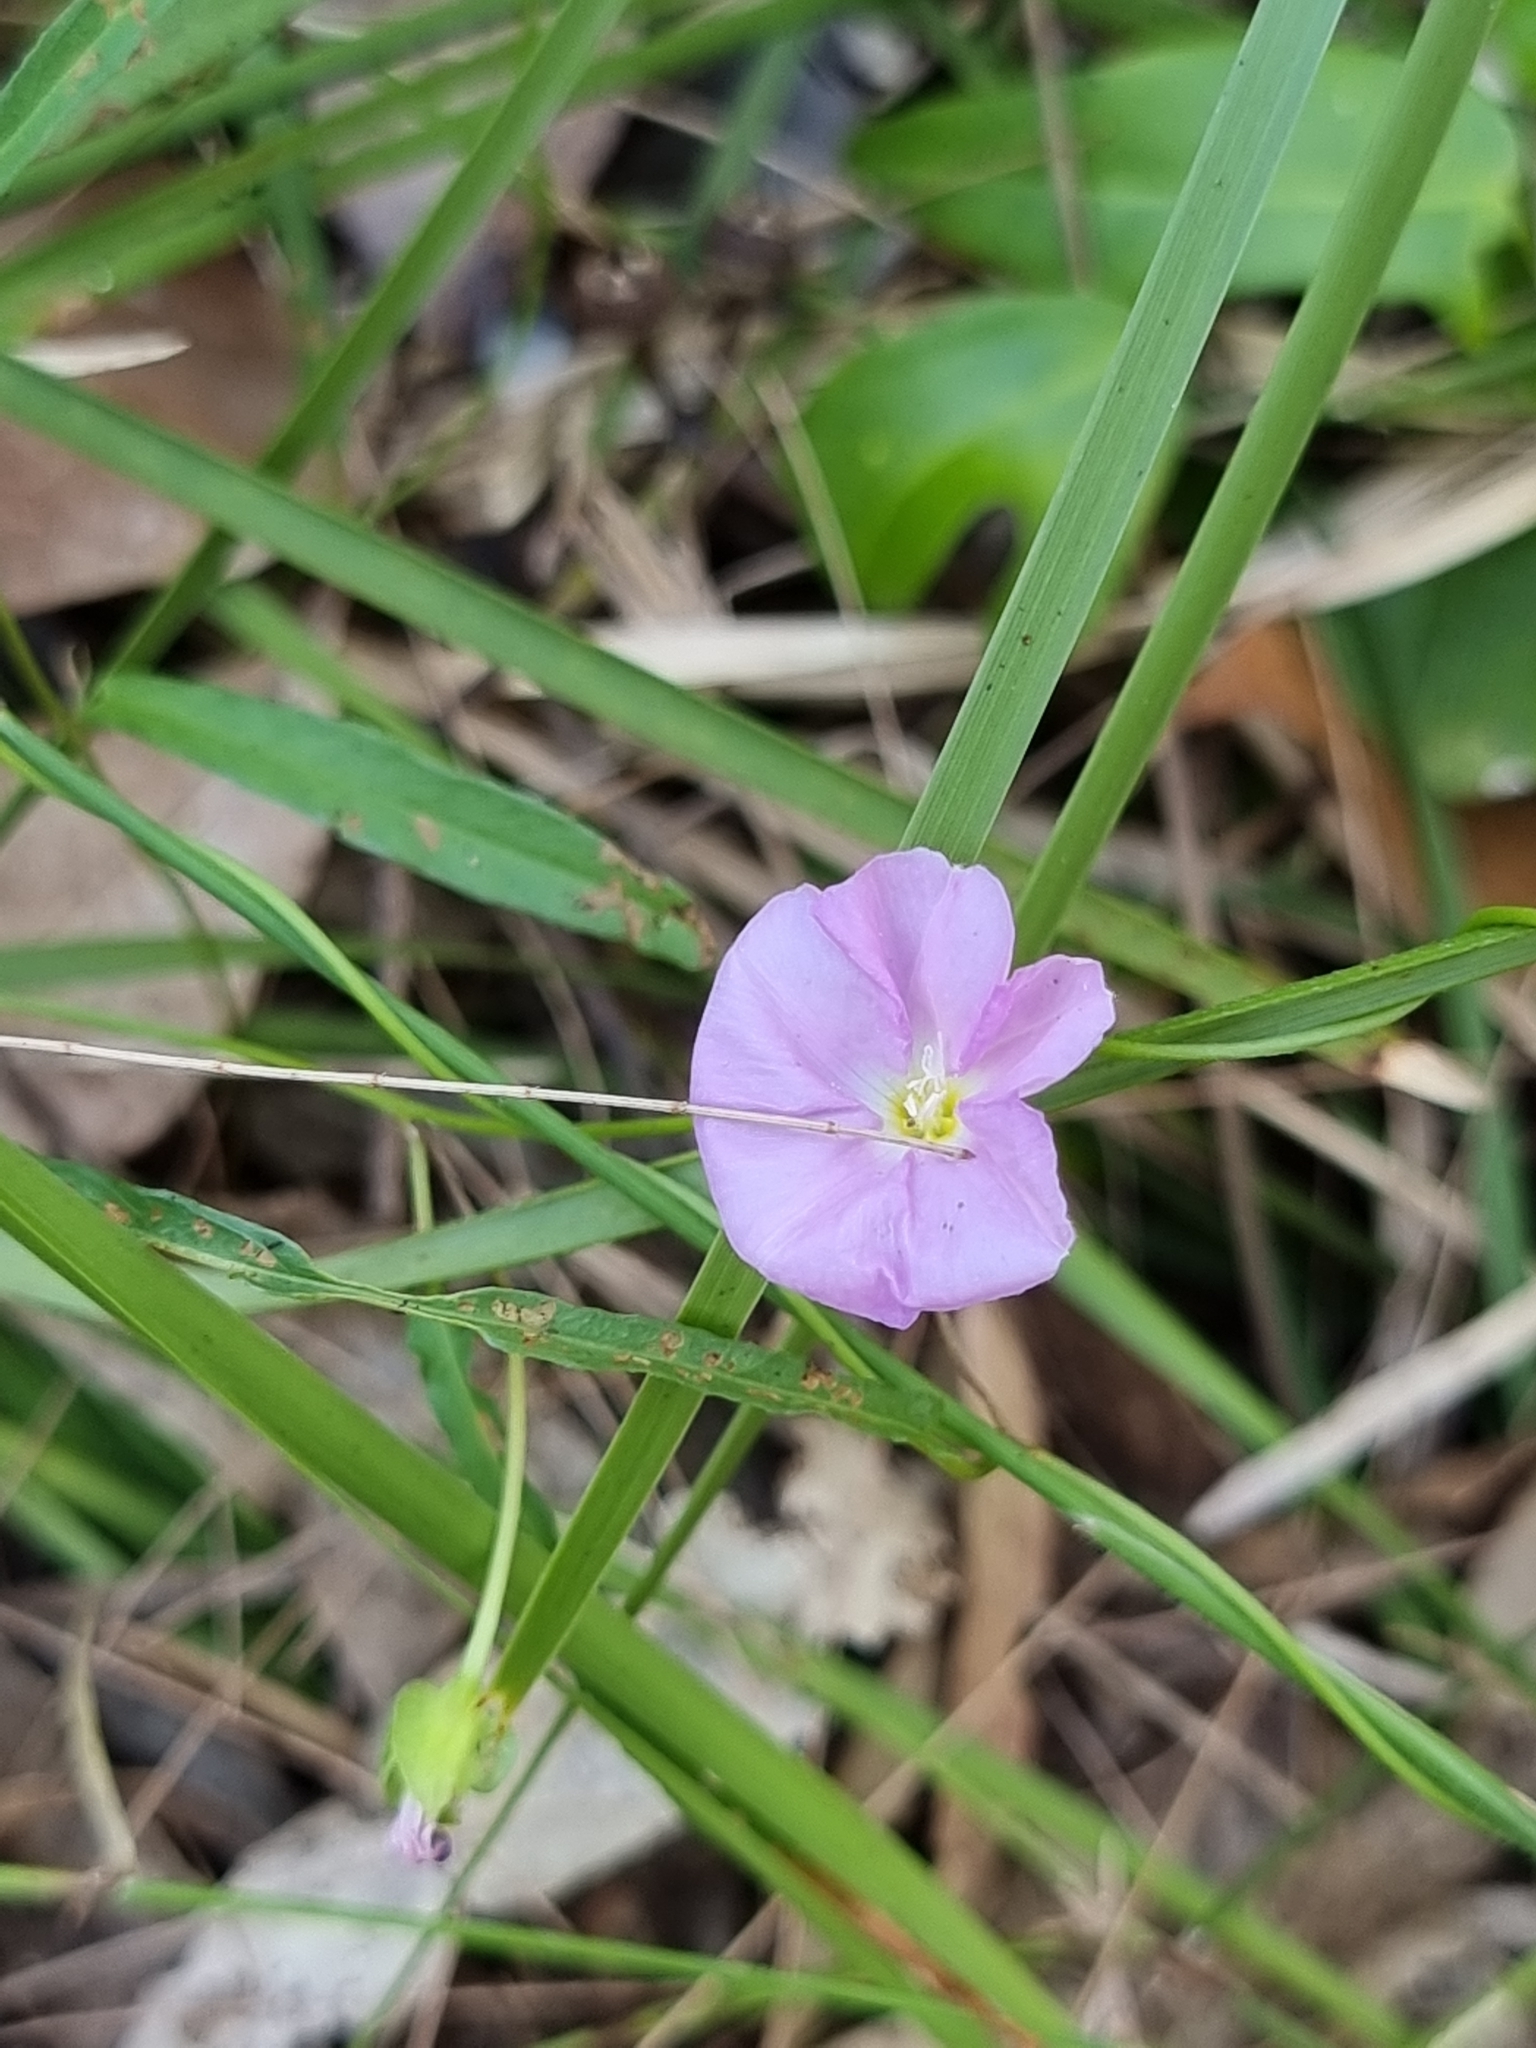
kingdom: Plantae
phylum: Tracheophyta
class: Magnoliopsida
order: Solanales
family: Convolvulaceae
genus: Polymeria
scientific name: Polymeria calycina
